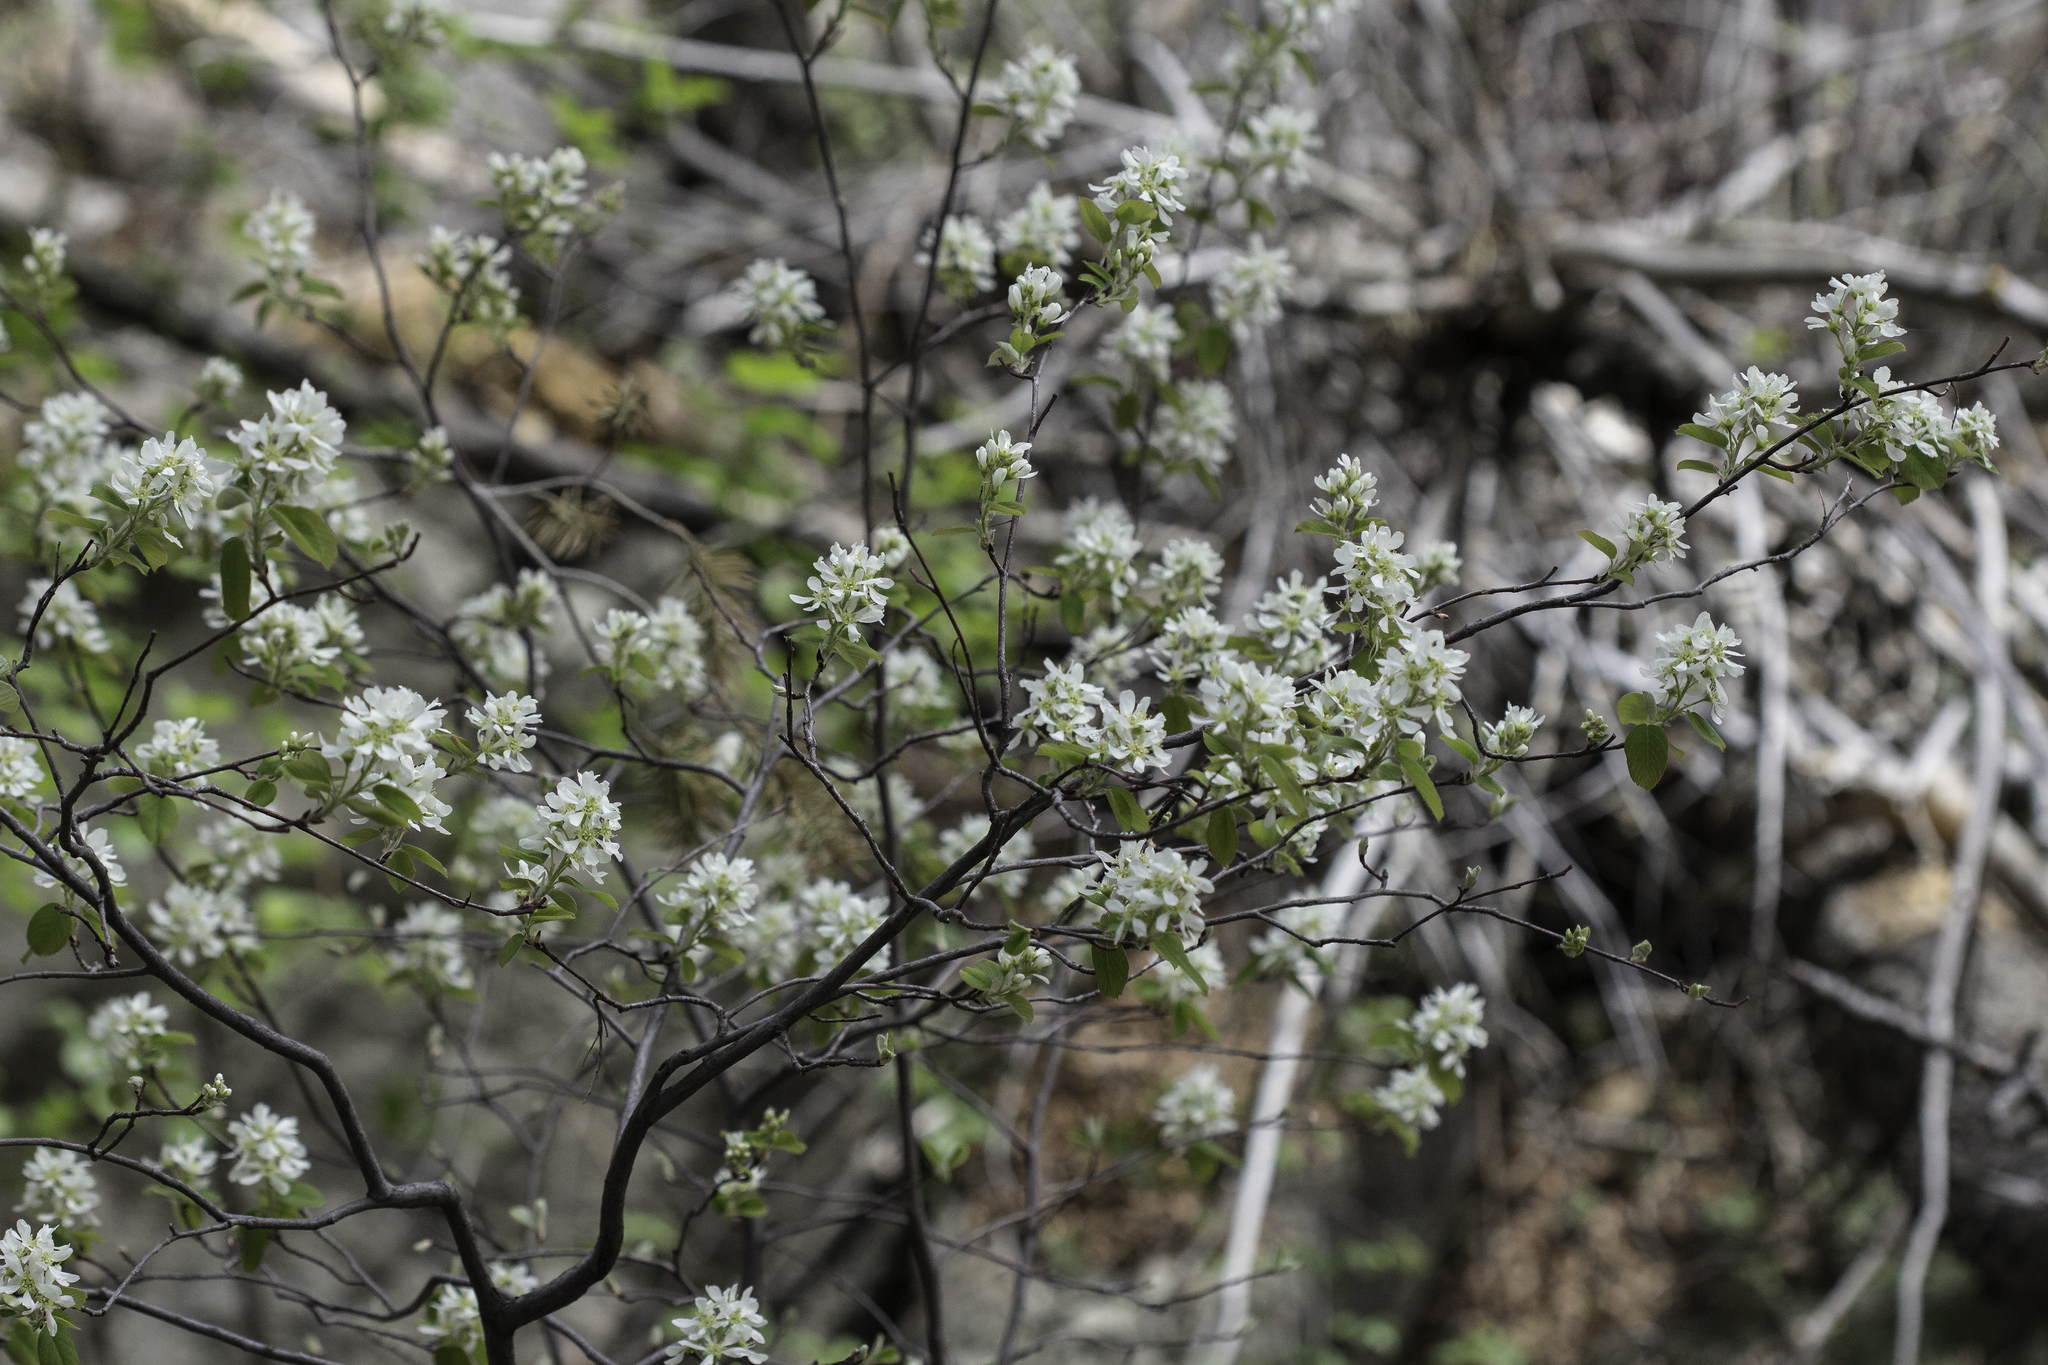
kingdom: Plantae
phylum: Tracheophyta
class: Magnoliopsida
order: Rosales
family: Rosaceae
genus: Amelanchier
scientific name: Amelanchier utahensis
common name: Utah serviceberry
